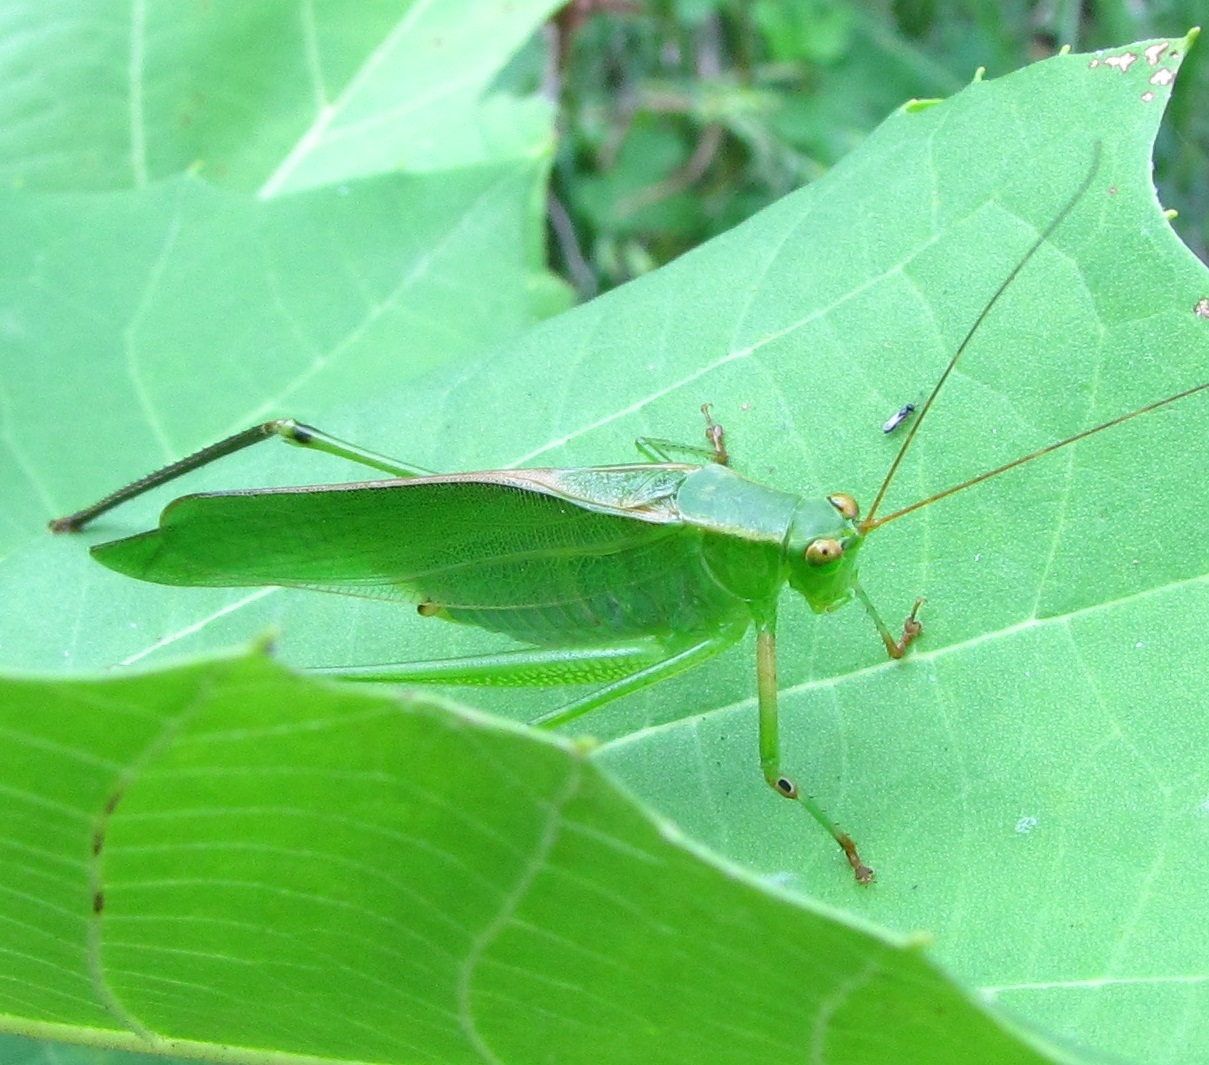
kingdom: Animalia
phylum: Arthropoda
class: Insecta
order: Orthoptera
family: Tettigoniidae
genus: Scudderia
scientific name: Scudderia furcata
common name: Fork-tailed bush katydid
